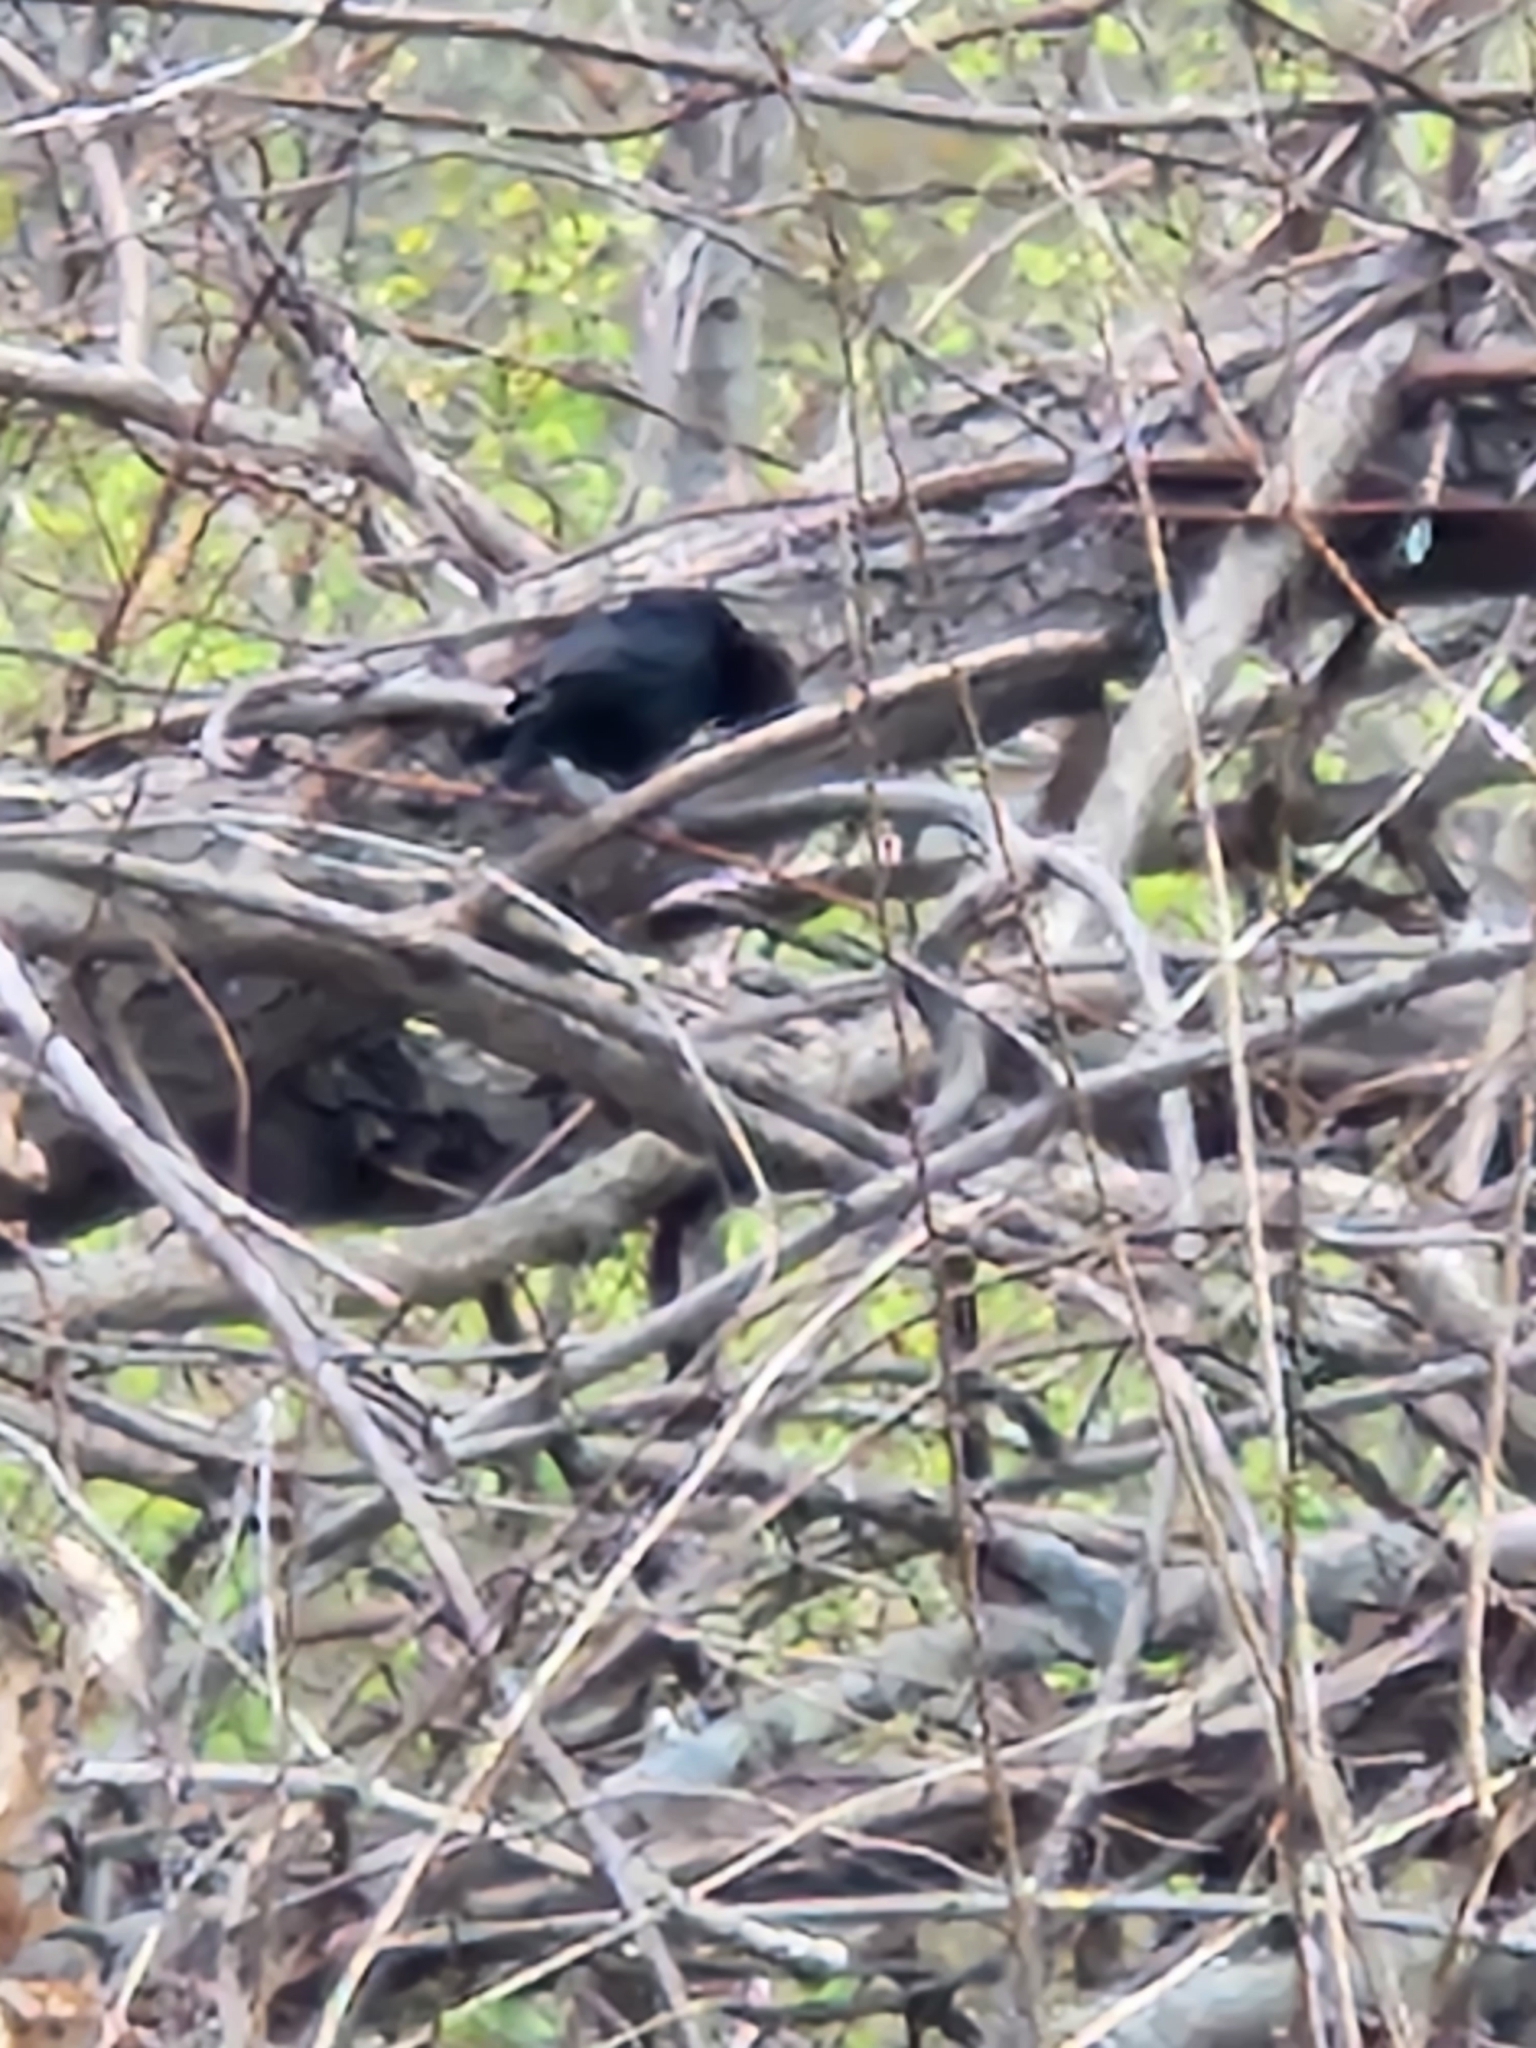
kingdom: Animalia
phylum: Chordata
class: Aves
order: Passeriformes
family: Icteridae
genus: Molothrus
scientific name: Molothrus ater
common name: Brown-headed cowbird
